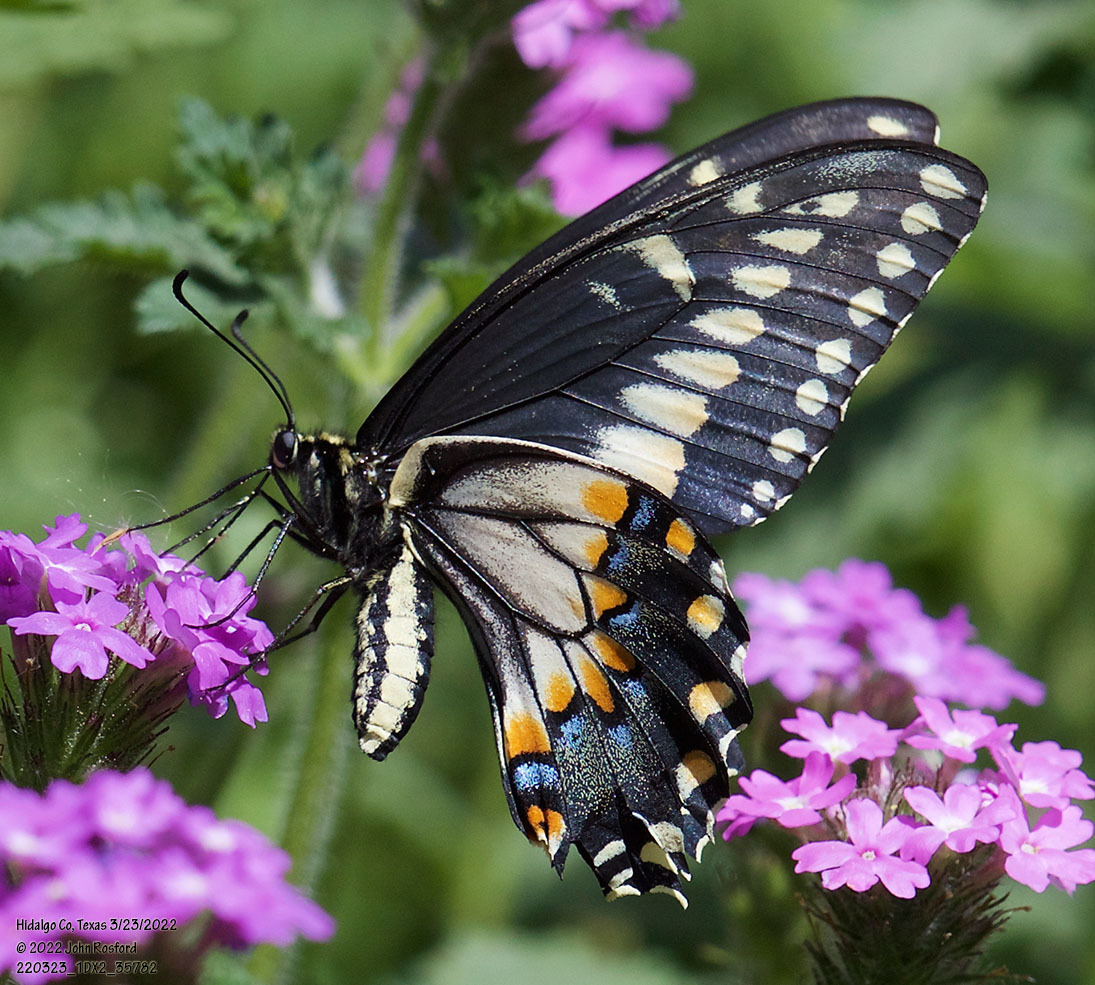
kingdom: Animalia
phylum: Arthropoda
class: Insecta
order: Lepidoptera
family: Papilionidae
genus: Papilio
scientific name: Papilio polyxenes
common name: Black swallowtail
